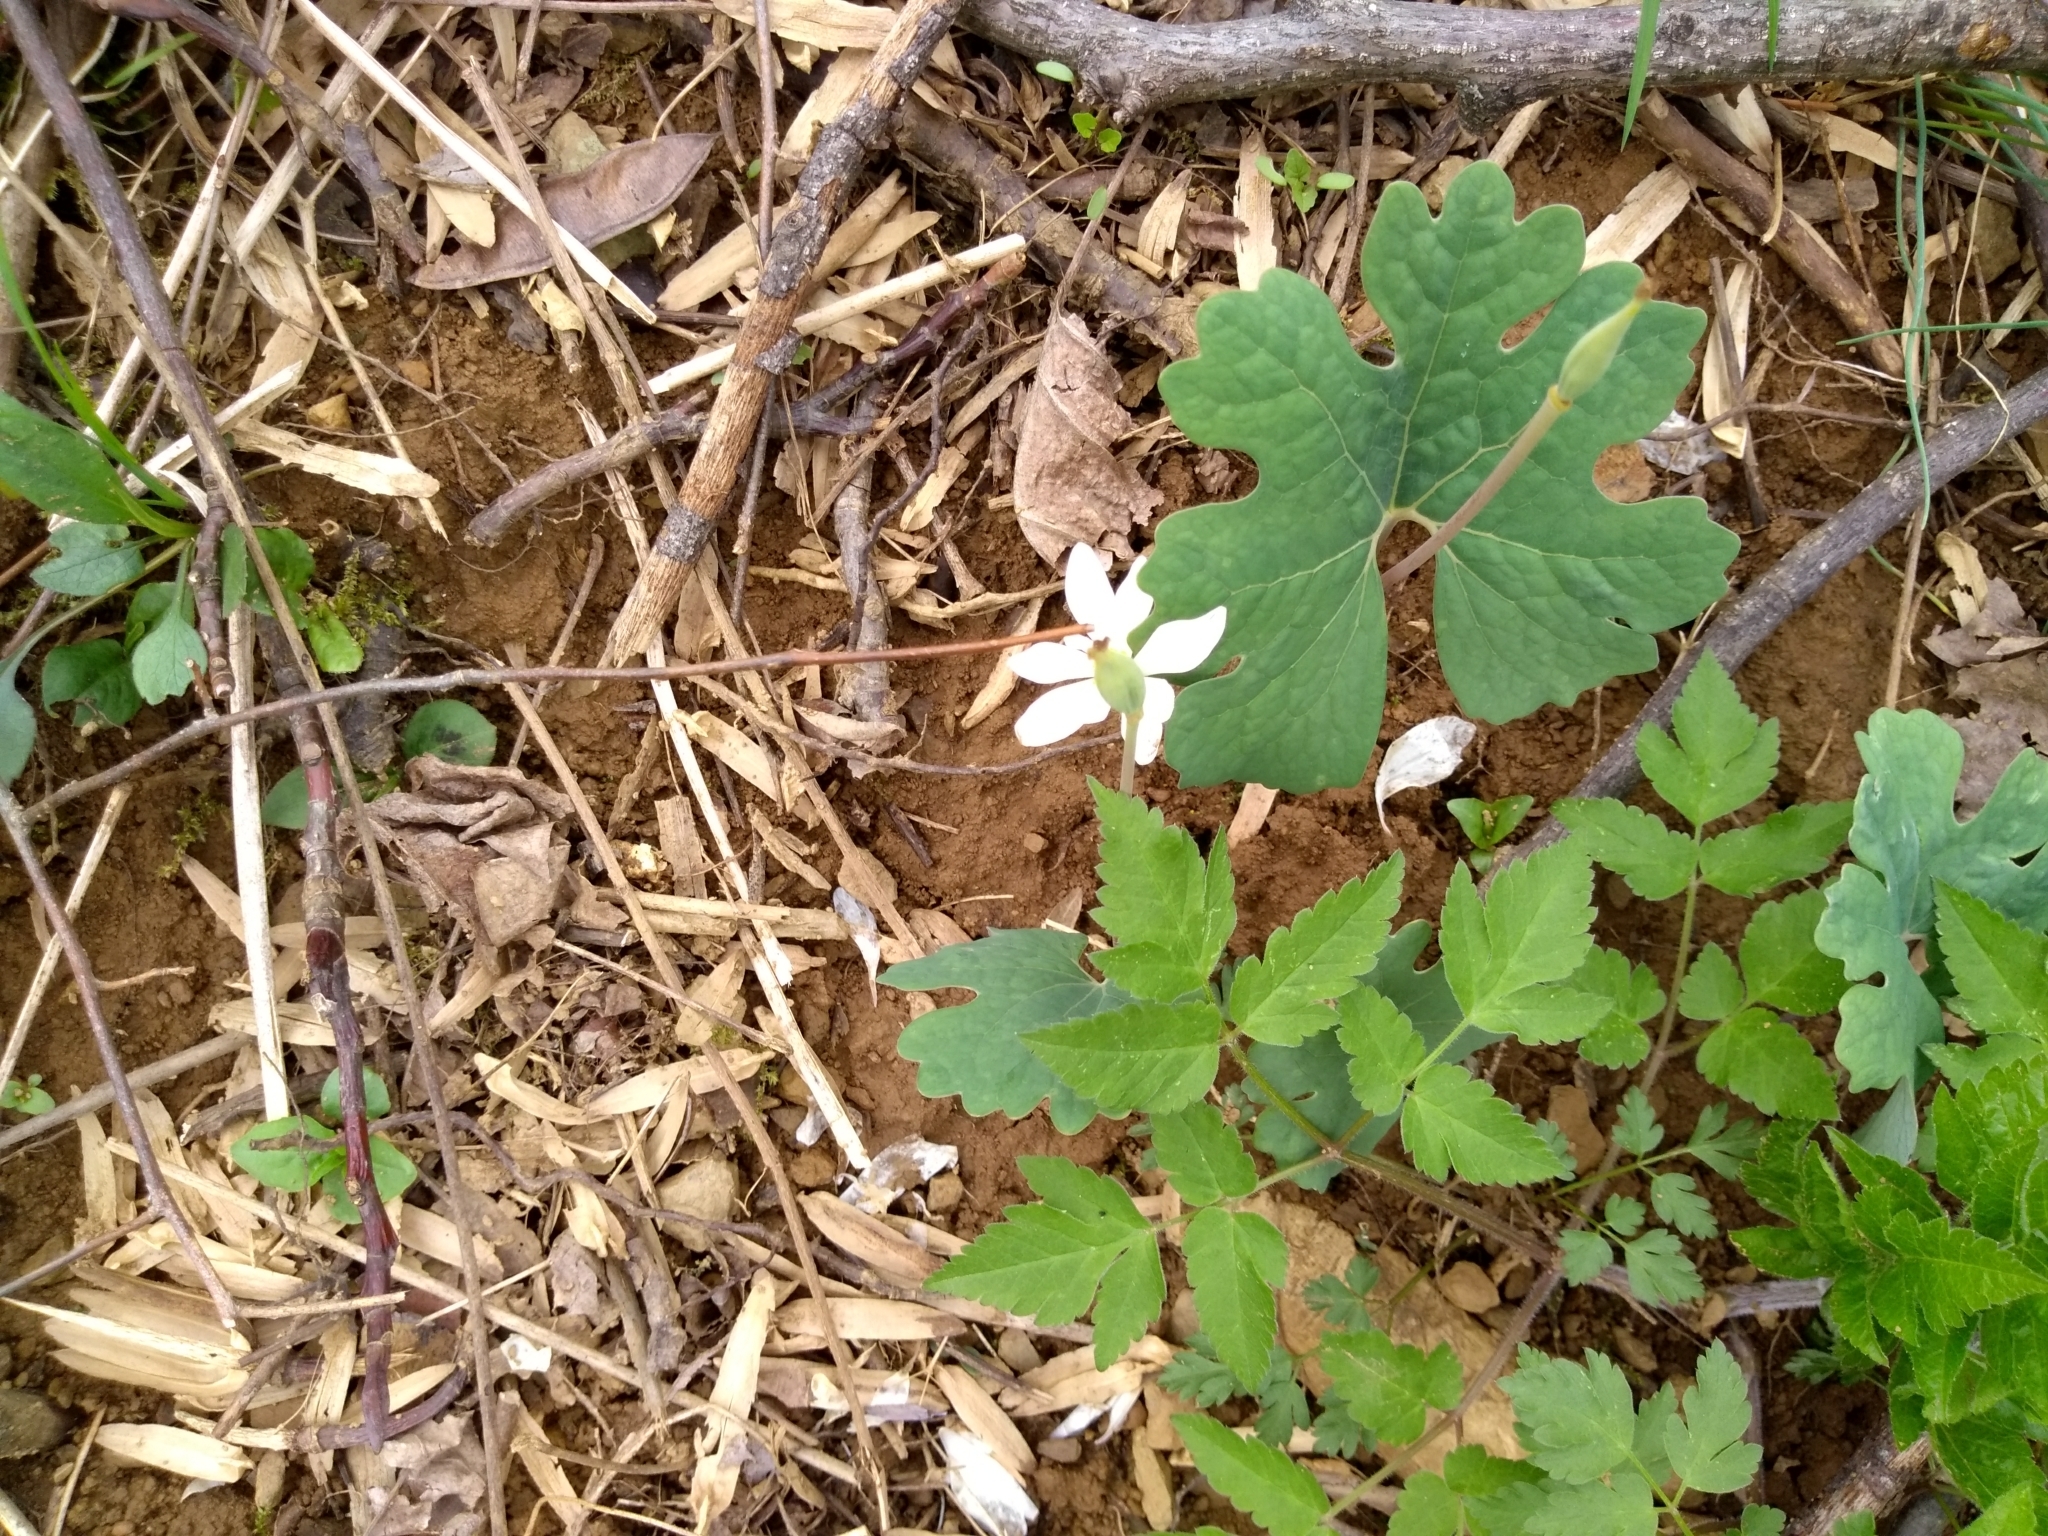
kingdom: Plantae
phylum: Tracheophyta
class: Magnoliopsida
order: Ranunculales
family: Papaveraceae
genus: Sanguinaria
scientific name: Sanguinaria canadensis
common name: Bloodroot
